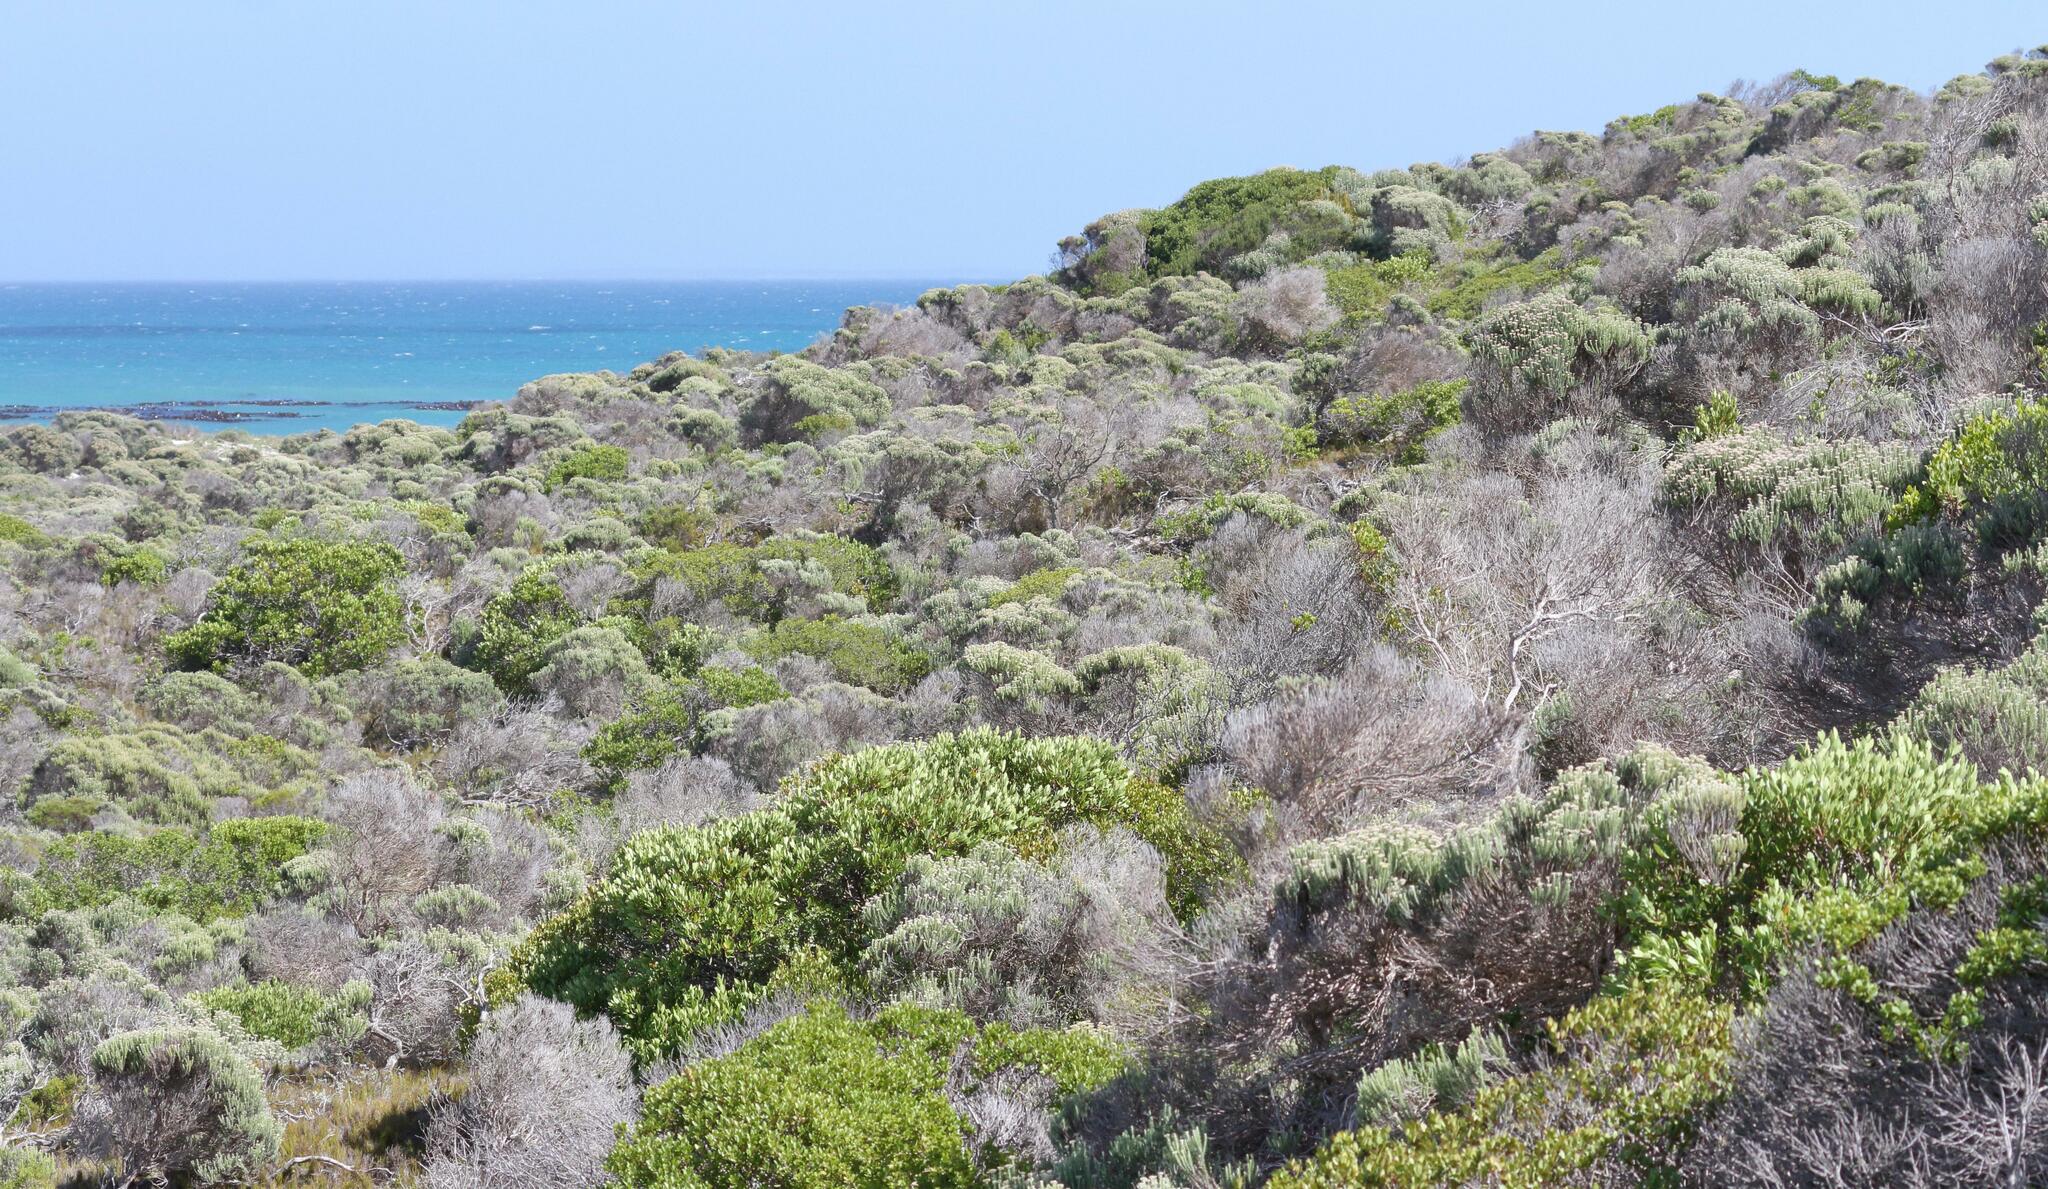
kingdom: Plantae
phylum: Tracheophyta
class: Magnoliopsida
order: Ericales
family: Ebenaceae
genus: Euclea
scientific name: Euclea racemosa
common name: Dune guarri
